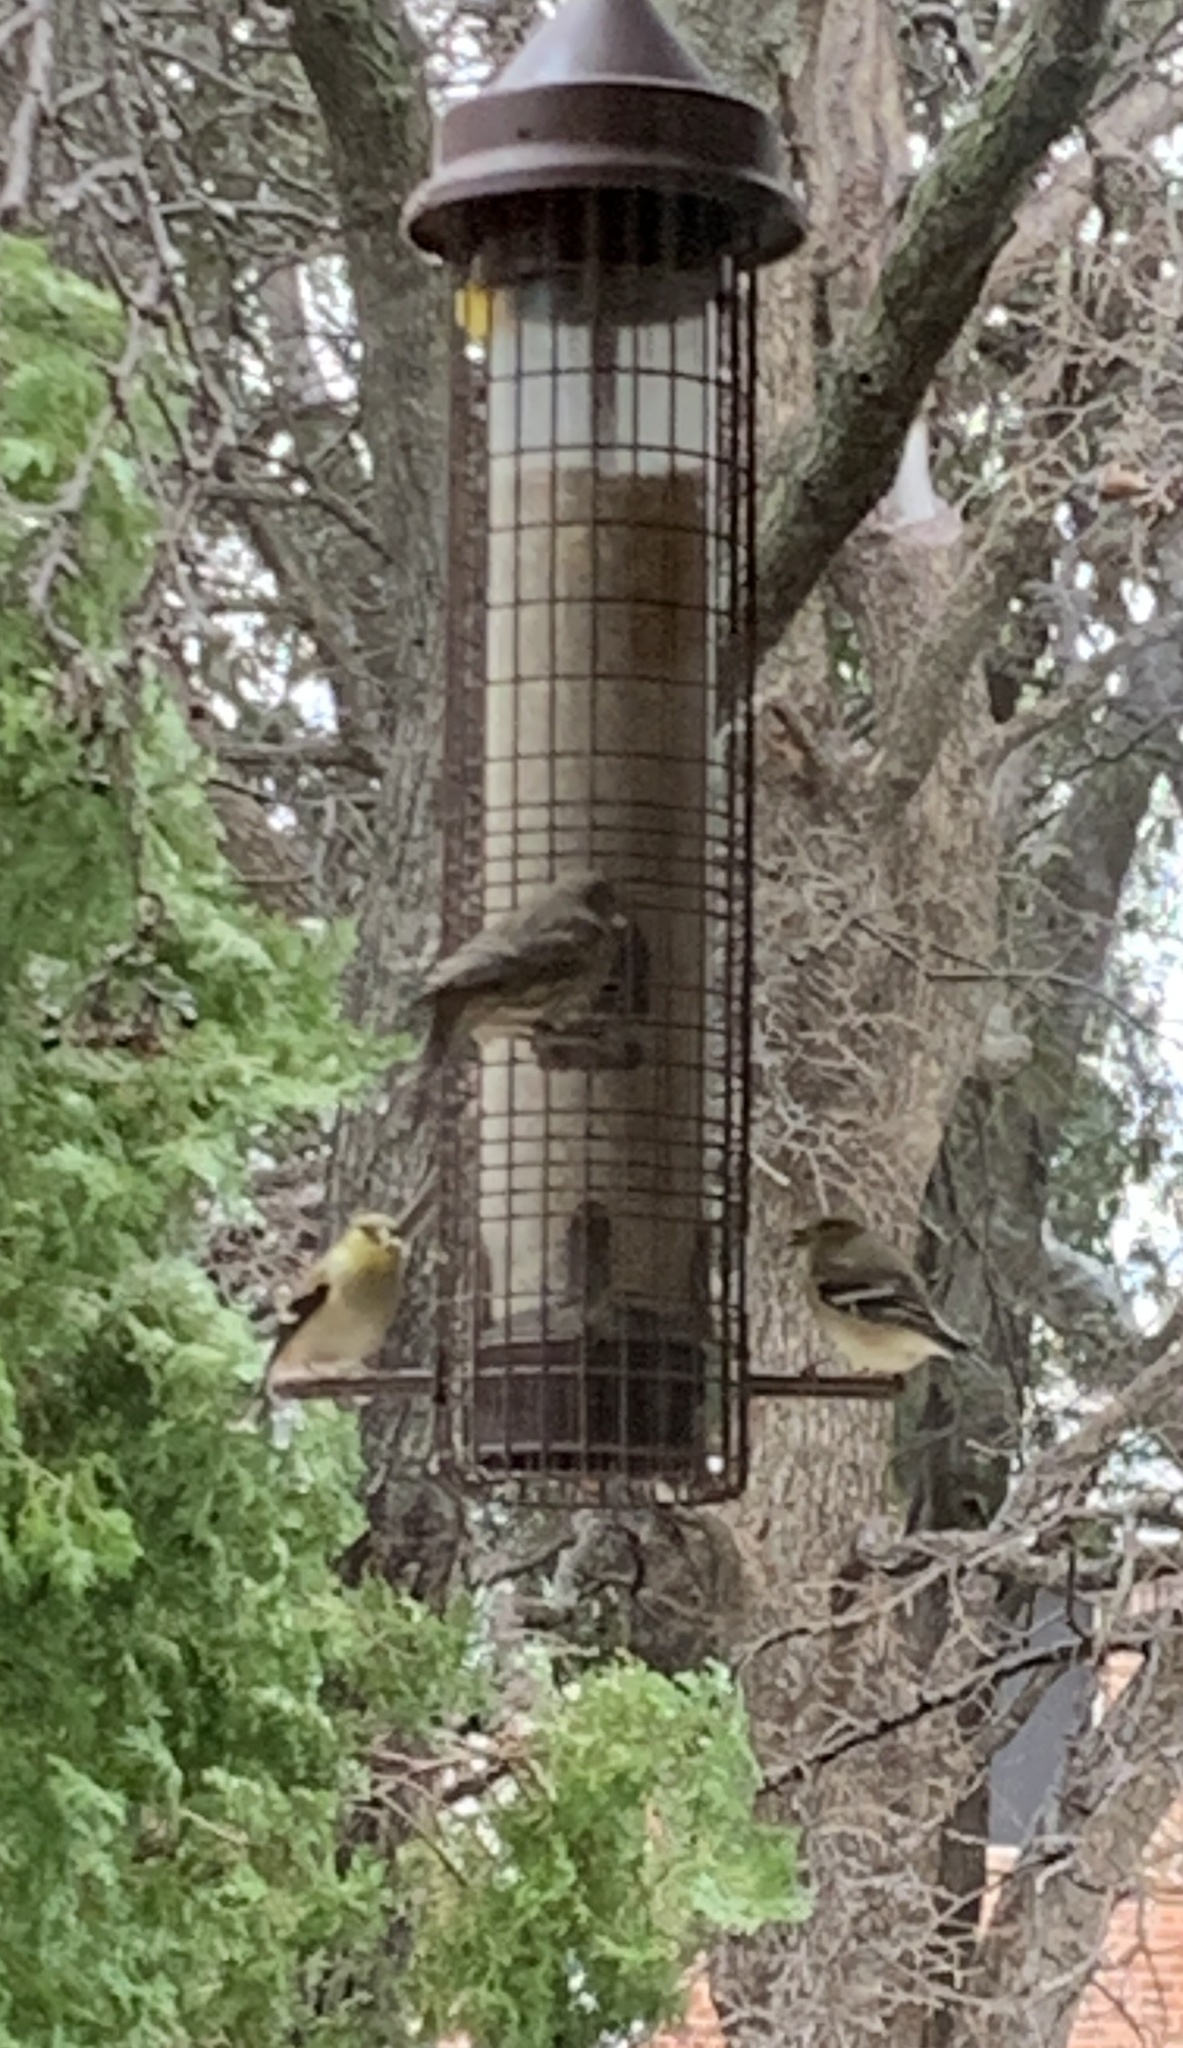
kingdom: Animalia
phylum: Chordata
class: Aves
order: Passeriformes
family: Fringillidae
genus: Spinus
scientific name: Spinus tristis
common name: American goldfinch
